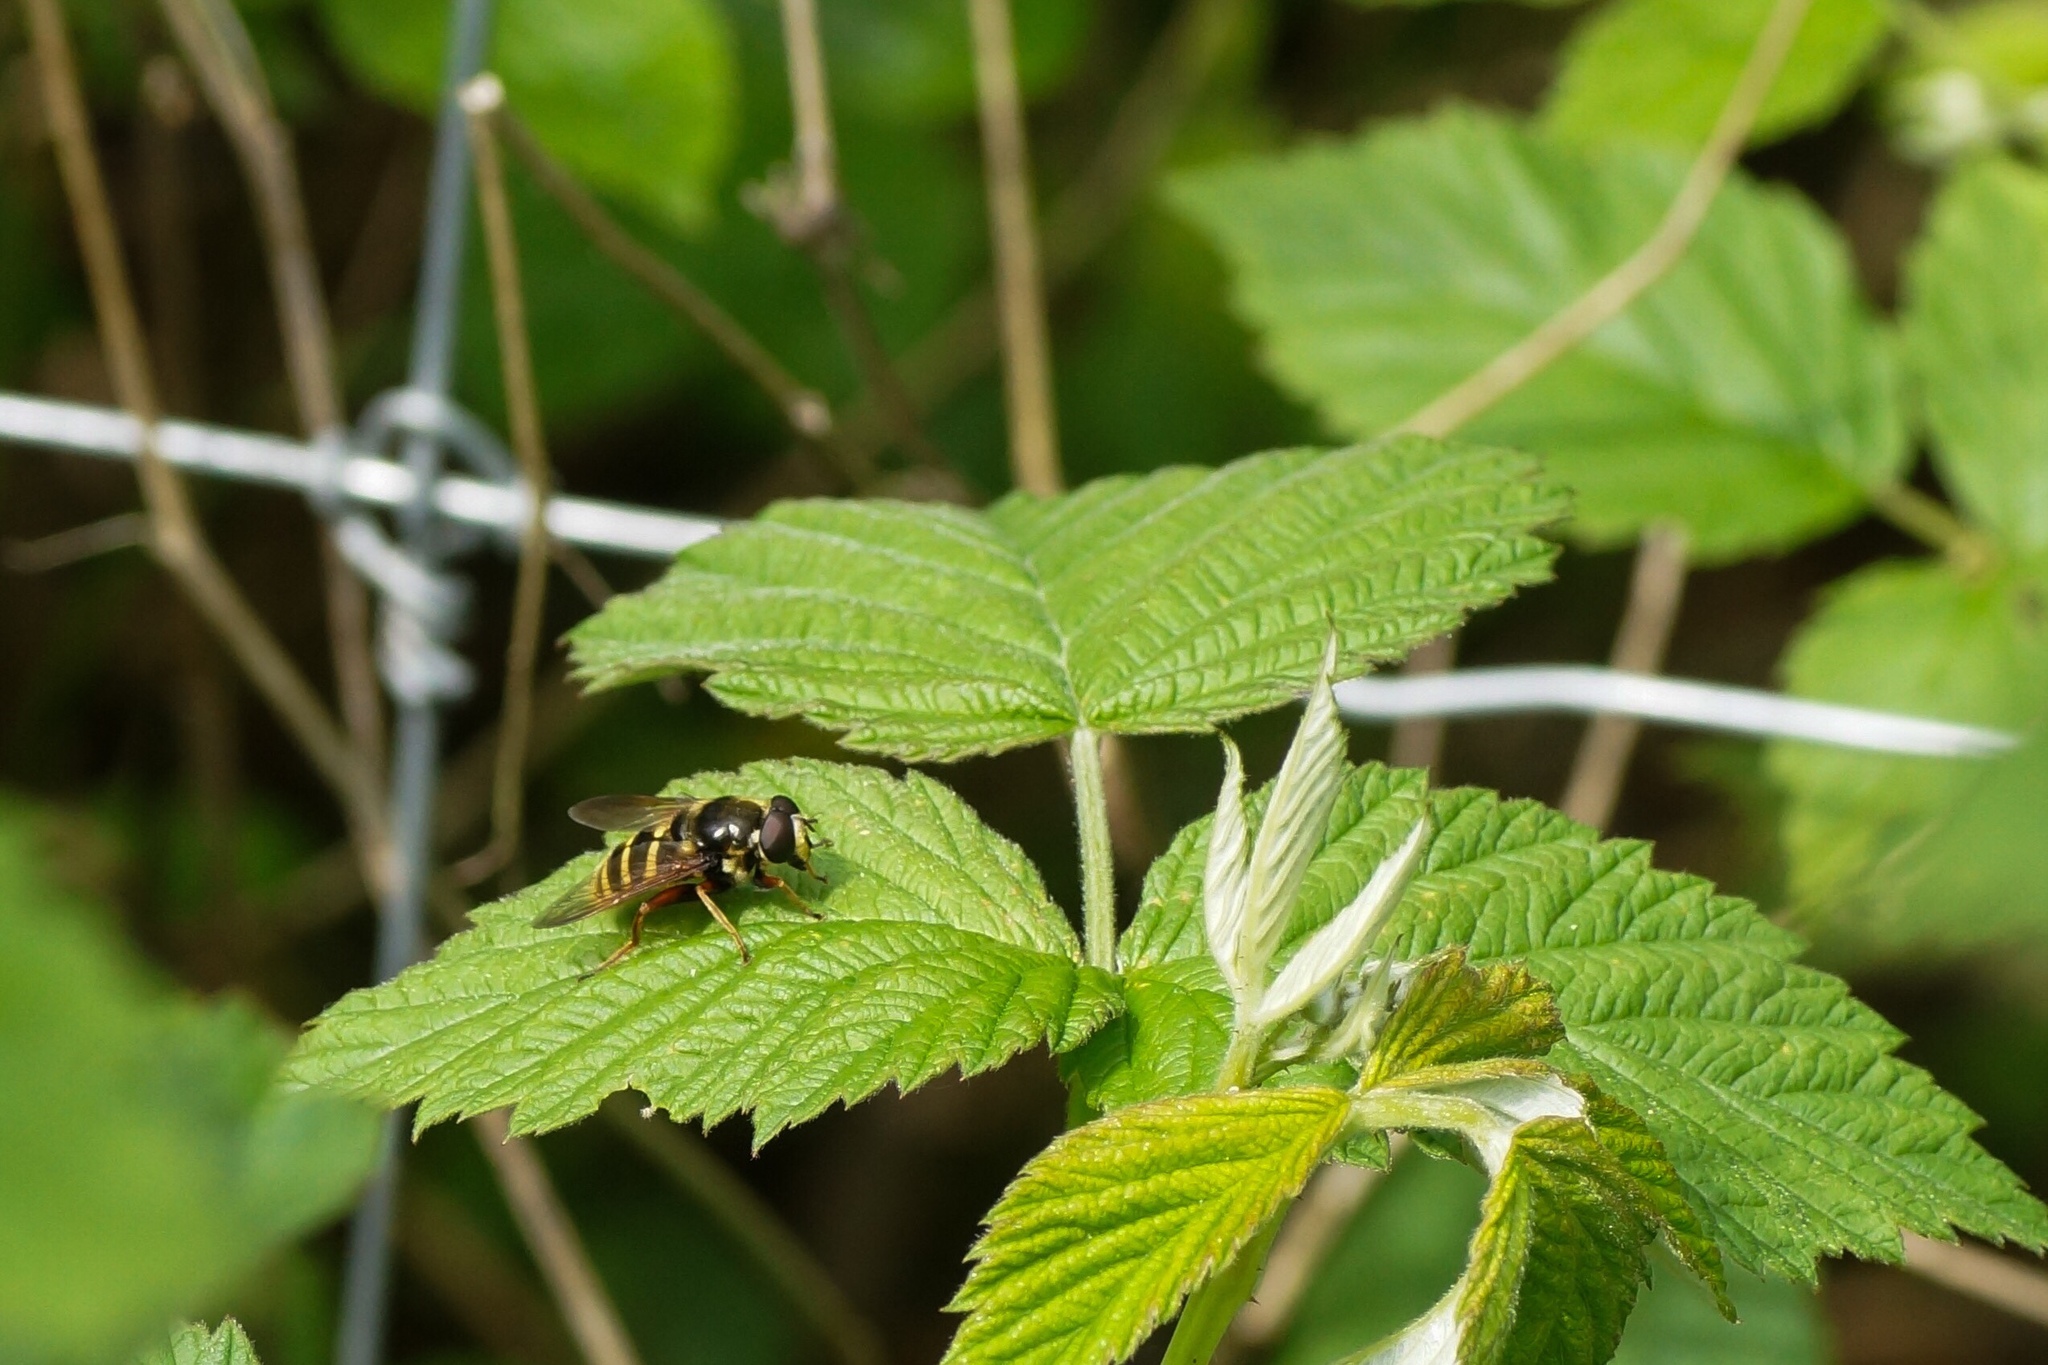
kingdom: Animalia
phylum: Arthropoda
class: Insecta
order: Diptera
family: Syrphidae
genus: Sericomyia
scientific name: Sericomyia silentis
